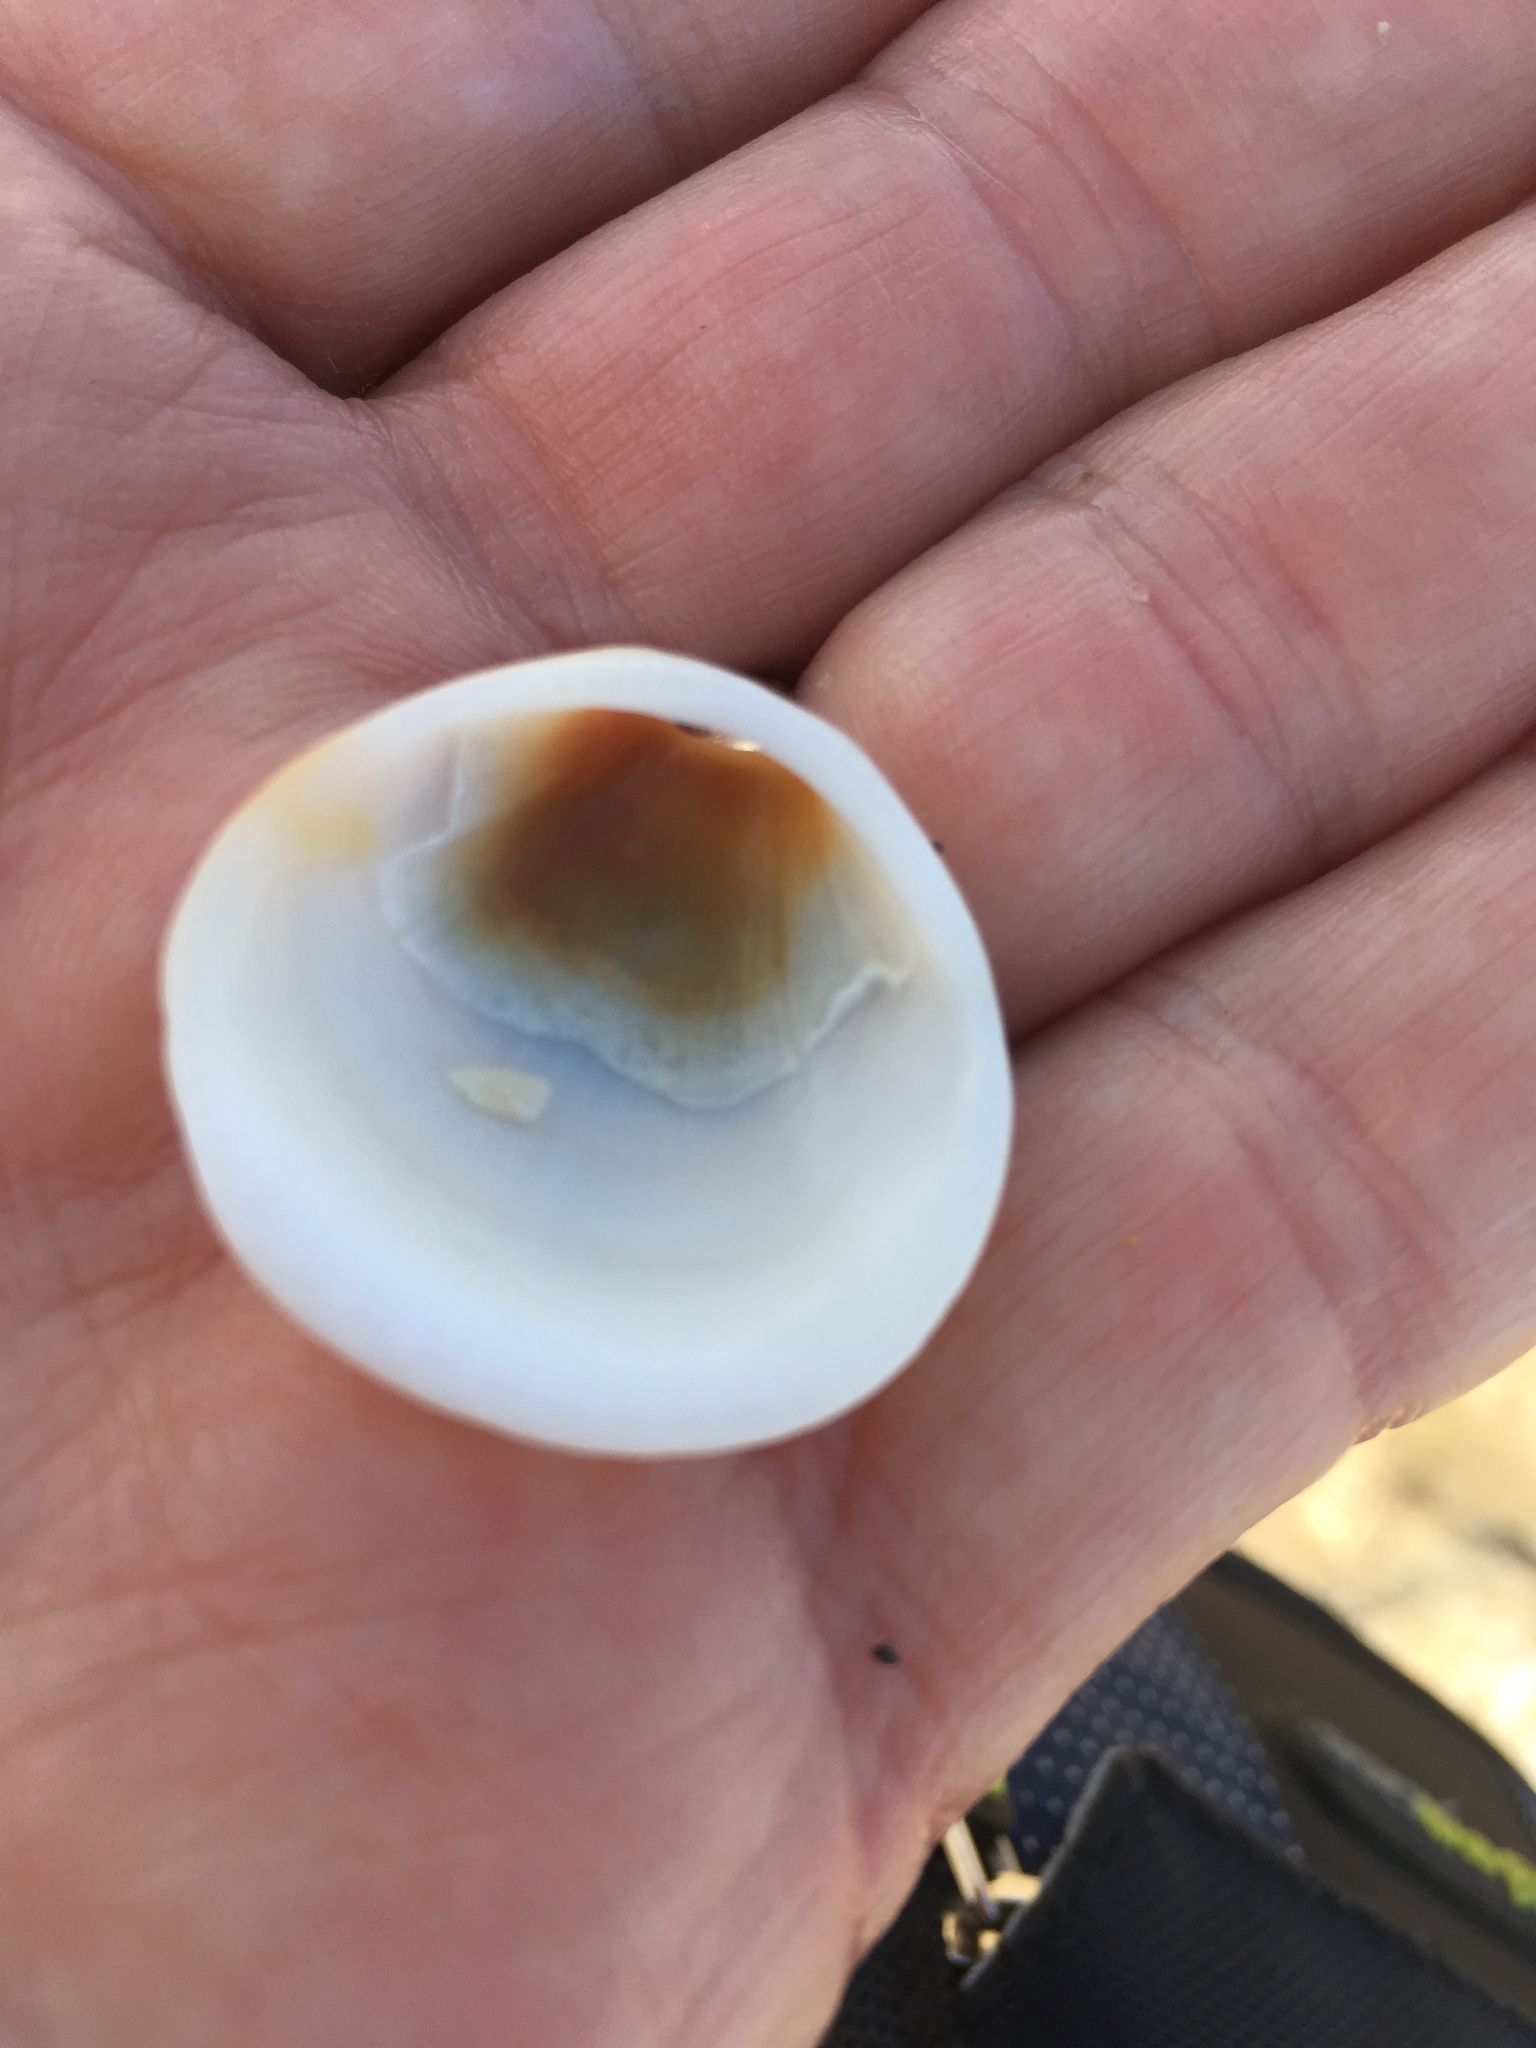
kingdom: Animalia
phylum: Mollusca
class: Bivalvia
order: Arcida
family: Glycymerididae
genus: Glycymeris
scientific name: Glycymeris spectralis
